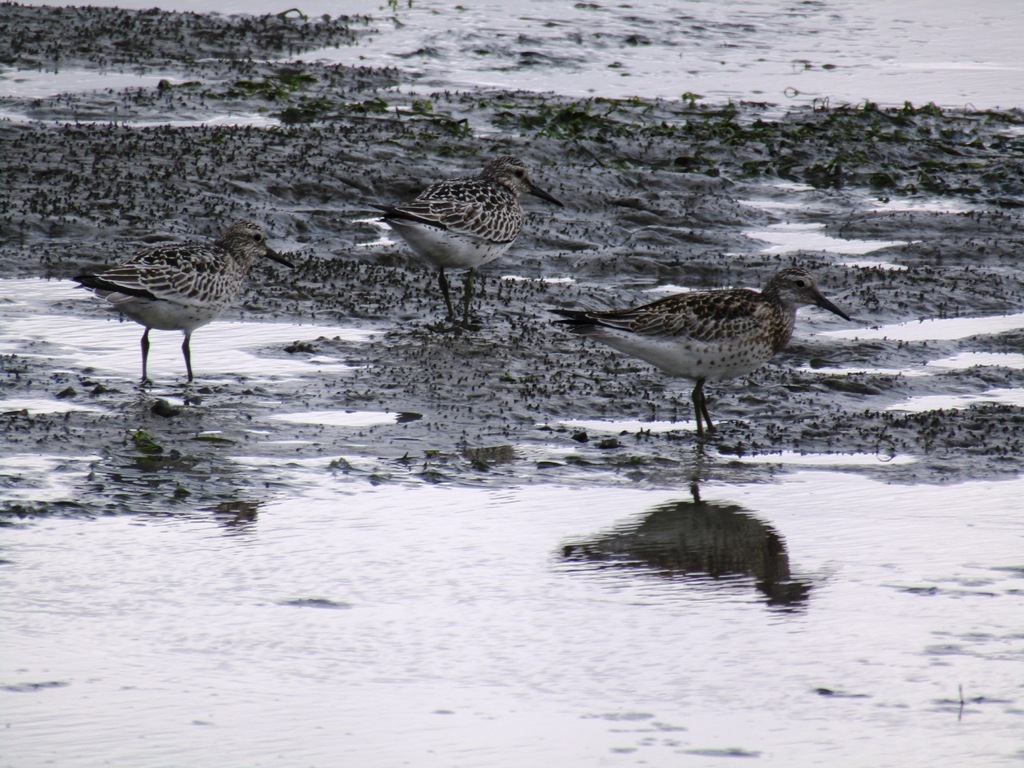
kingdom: Animalia
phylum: Chordata
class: Aves
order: Charadriiformes
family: Scolopacidae
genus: Calidris
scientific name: Calidris tenuirostris
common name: Great knot
